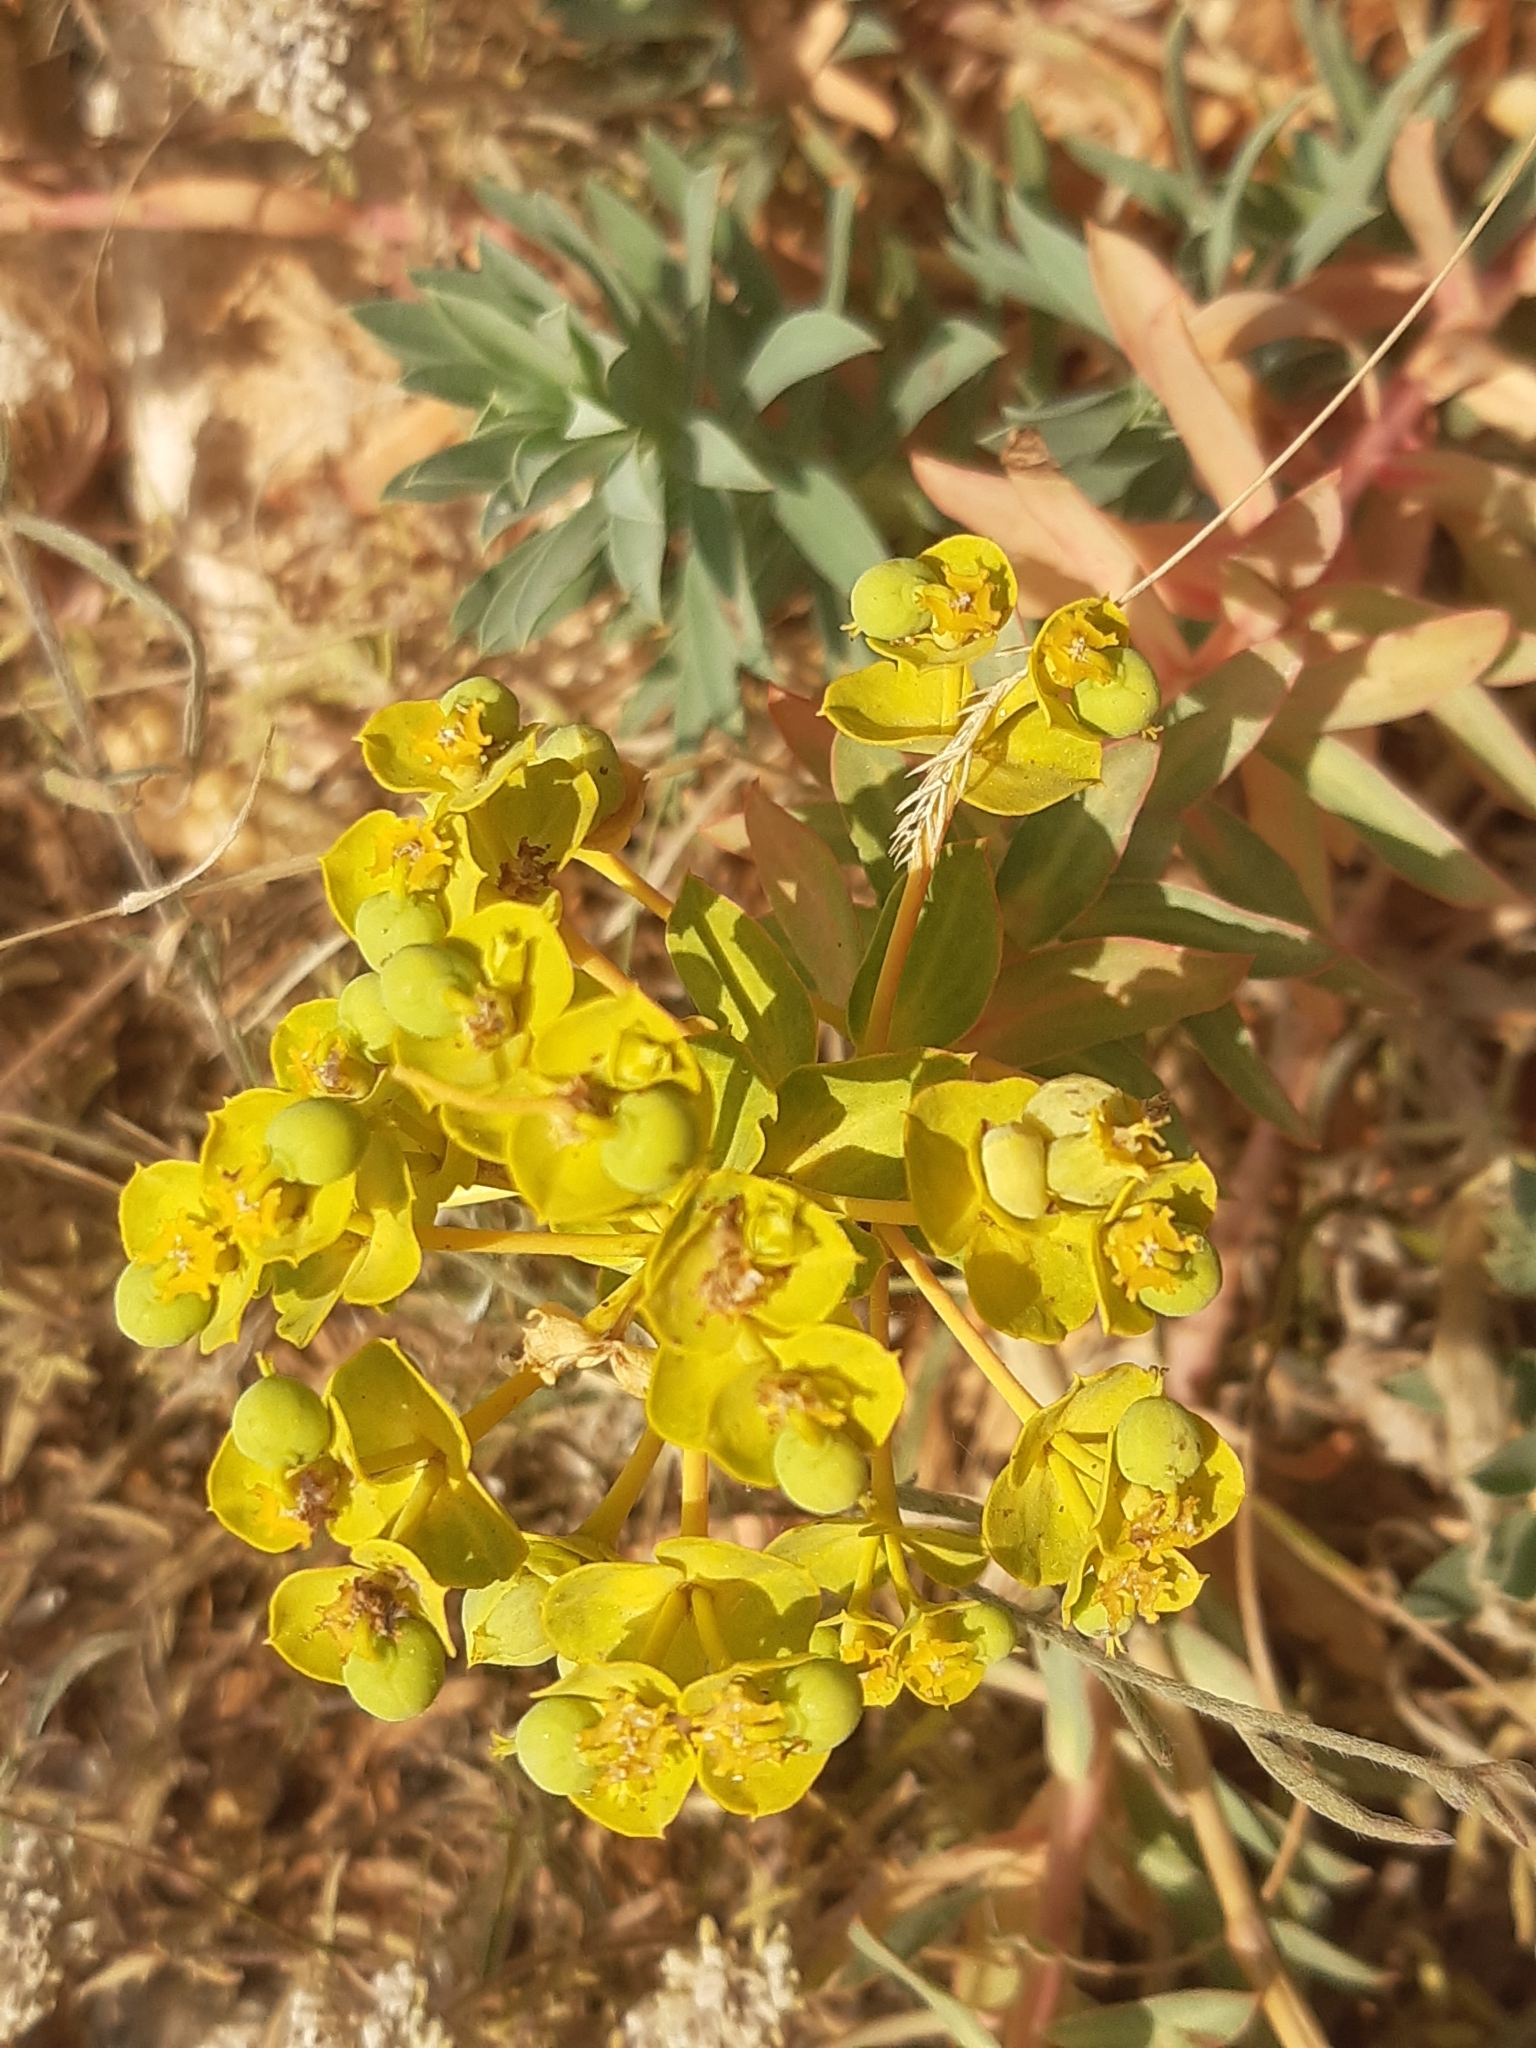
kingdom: Plantae
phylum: Tracheophyta
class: Magnoliopsida
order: Malpighiales
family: Euphorbiaceae
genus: Euphorbia
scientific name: Euphorbia nicaeensis
